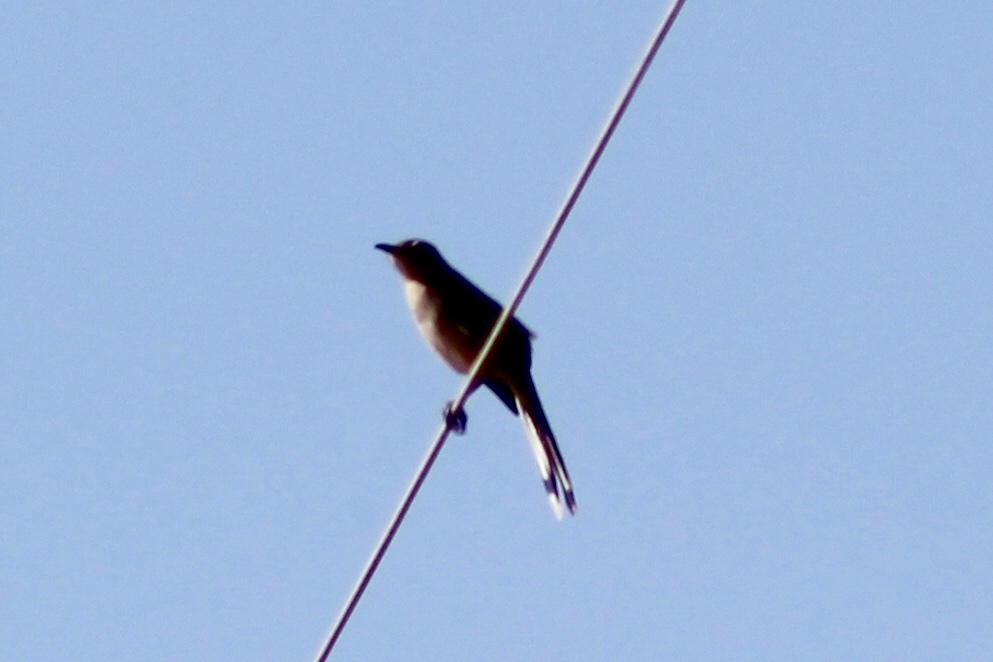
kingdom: Animalia
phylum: Chordata
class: Aves
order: Passeriformes
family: Mimidae
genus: Mimus
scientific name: Mimus polyglottos
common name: Northern mockingbird
